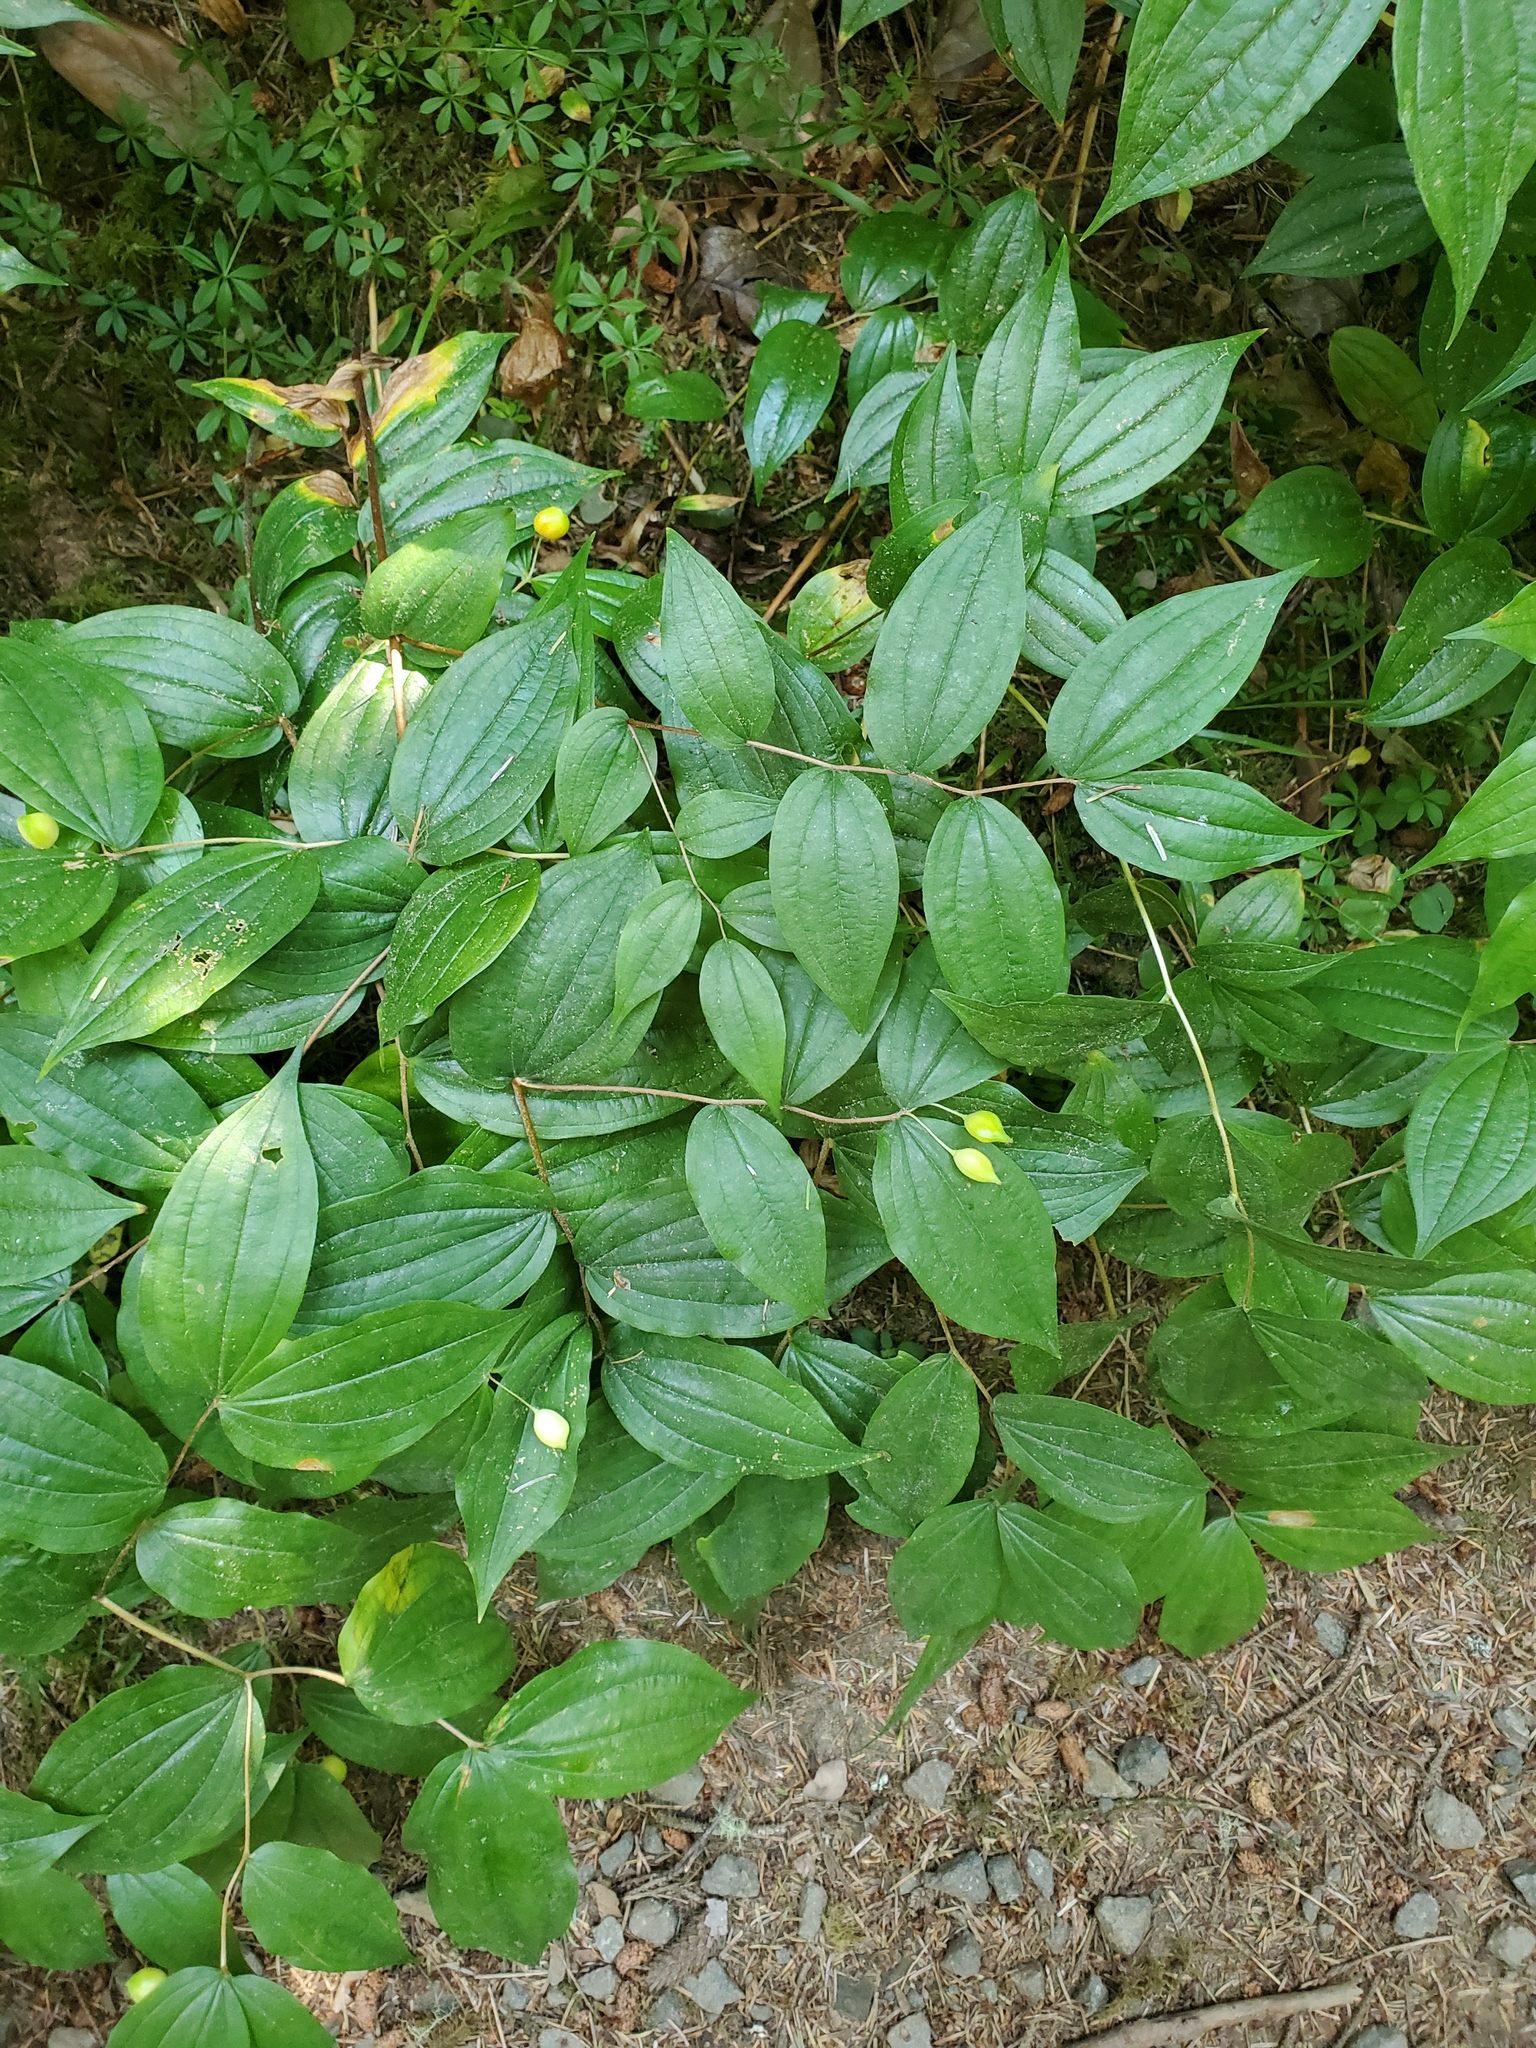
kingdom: Plantae
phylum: Tracheophyta
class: Liliopsida
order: Liliales
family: Liliaceae
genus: Prosartes
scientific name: Prosartes smithii
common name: Fairy-lantern
